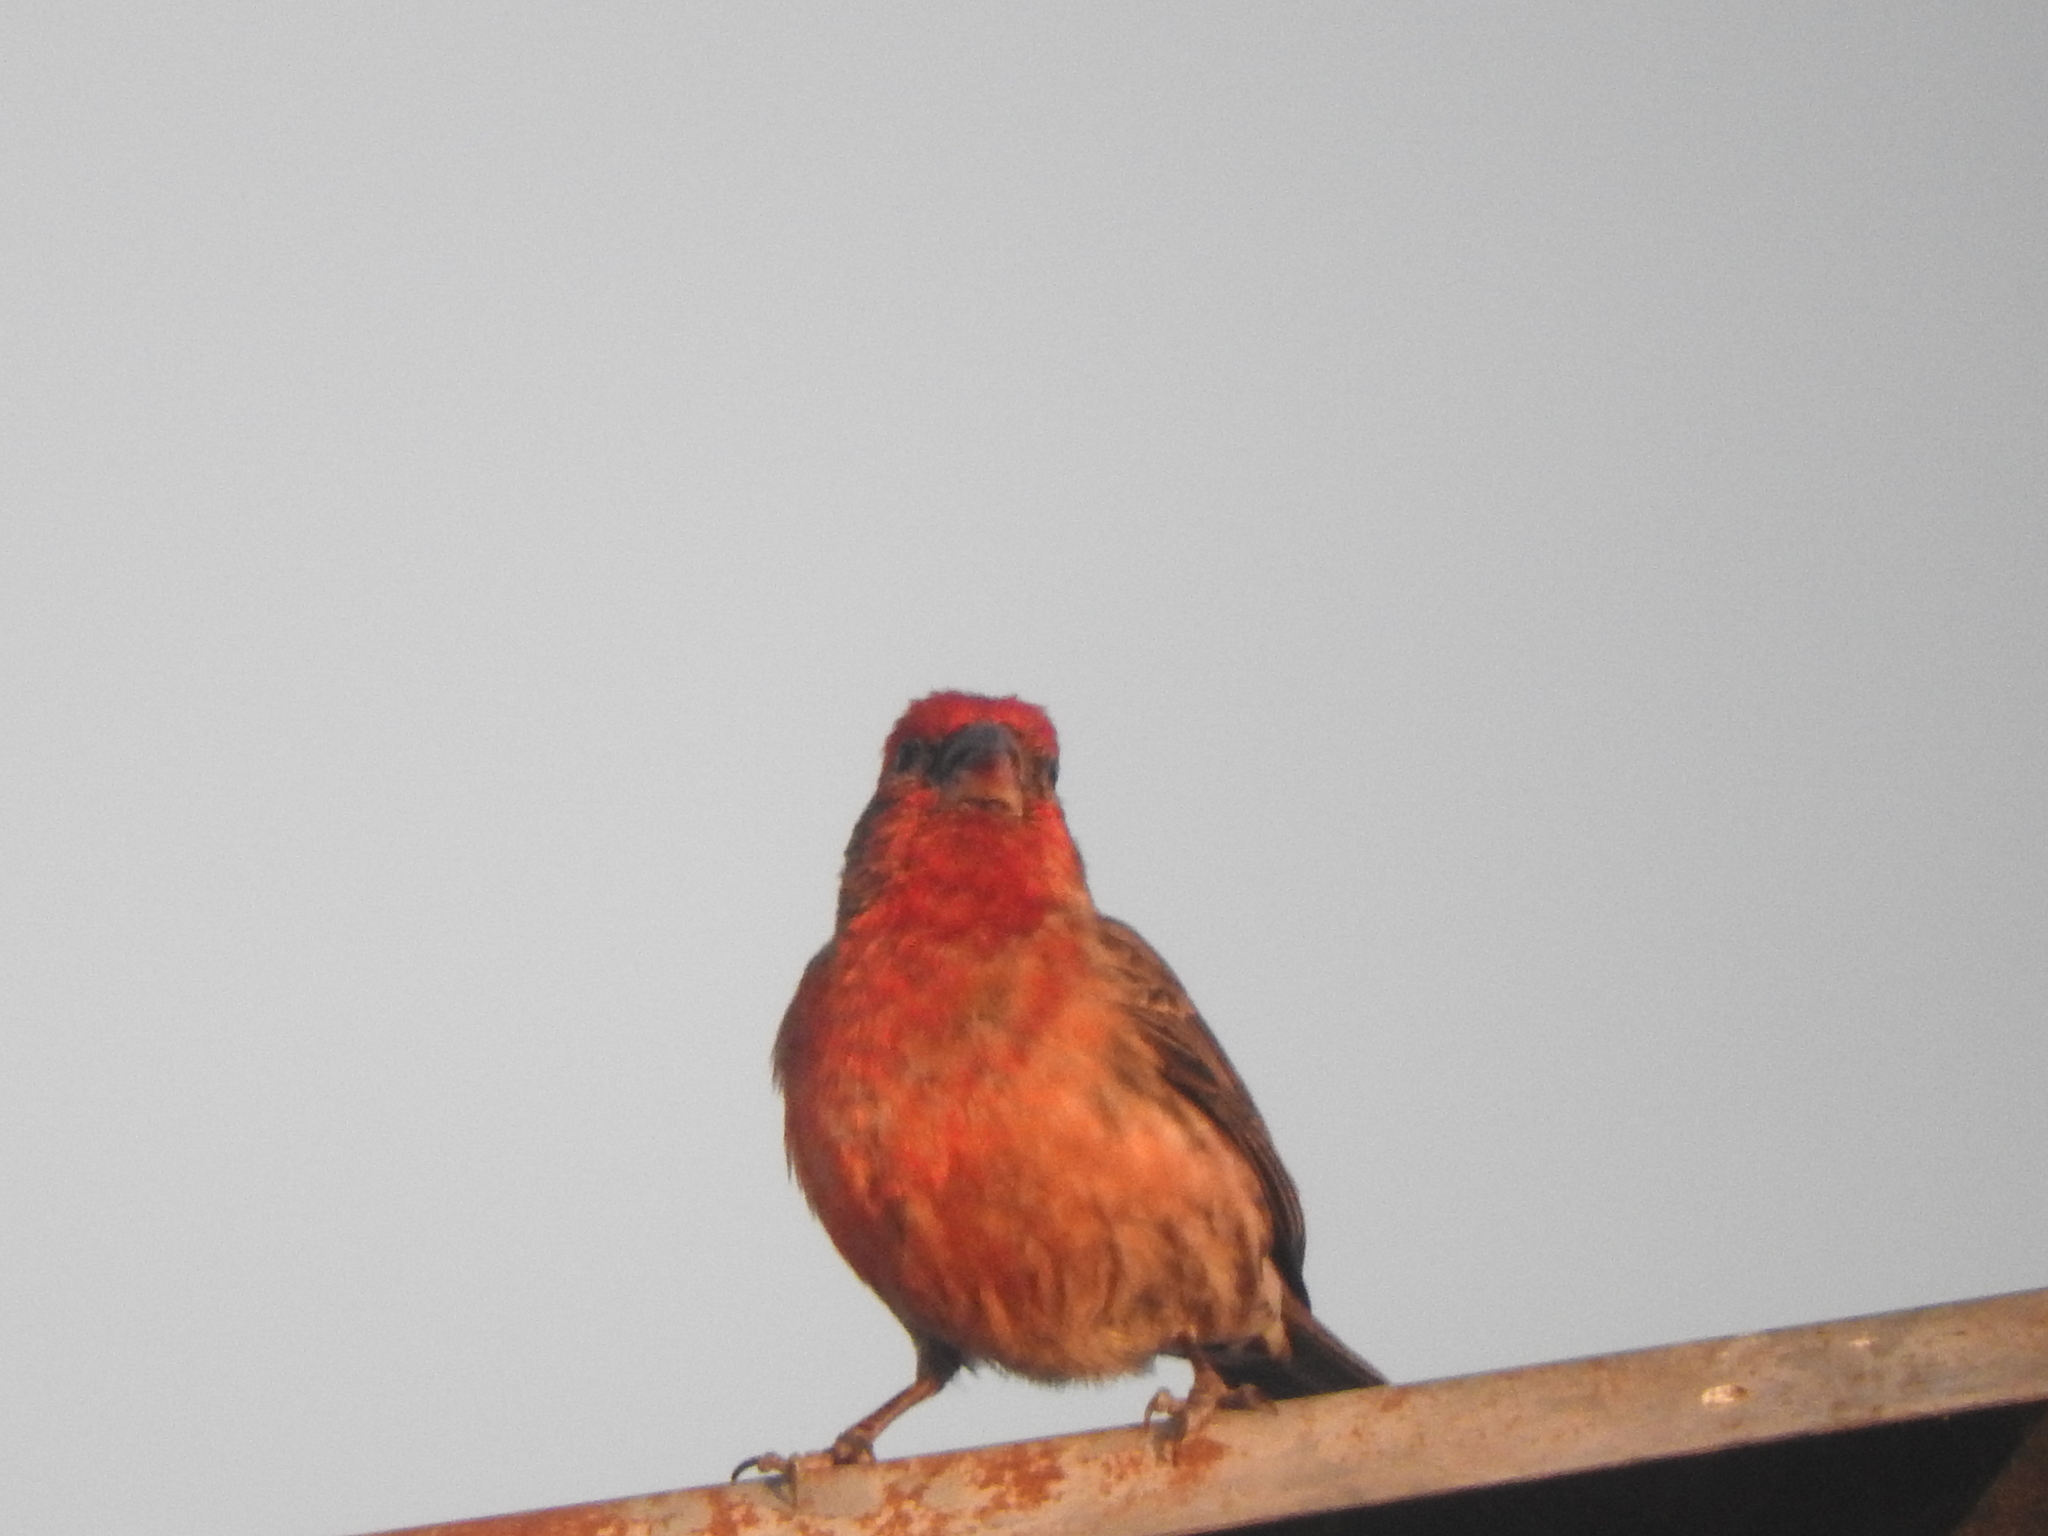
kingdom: Animalia
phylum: Chordata
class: Aves
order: Passeriformes
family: Fringillidae
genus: Haemorhous
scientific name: Haemorhous mexicanus
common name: House finch
